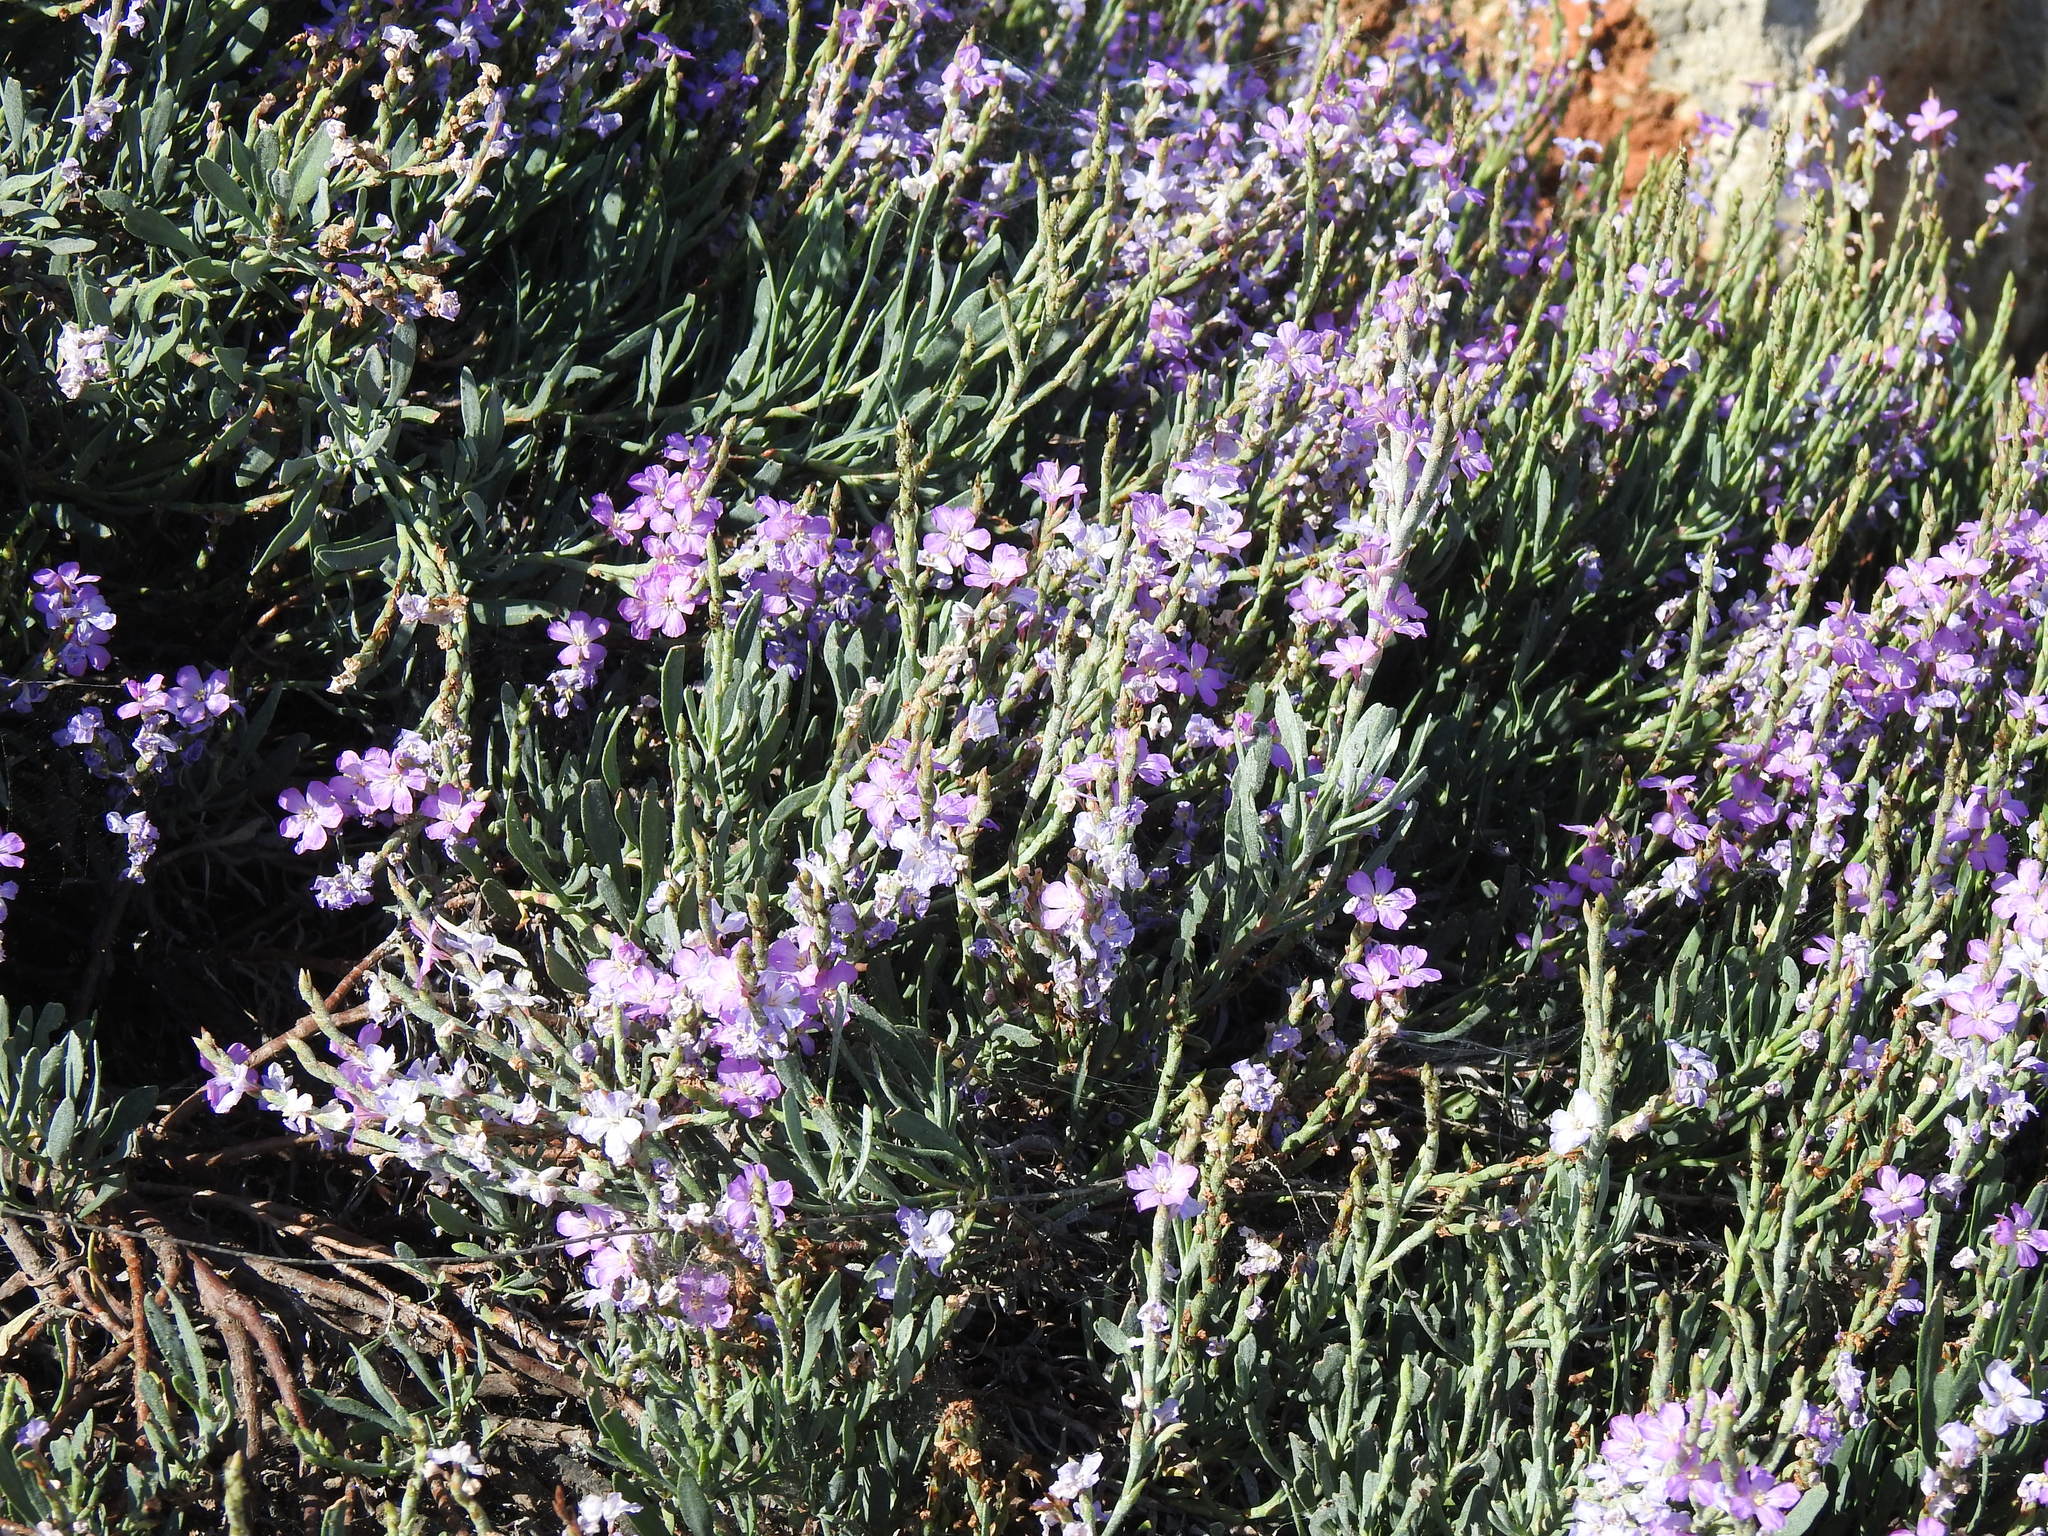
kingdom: Plantae
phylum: Tracheophyta
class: Magnoliopsida
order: Caryophyllales
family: Plumbaginaceae
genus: Limoniastrum
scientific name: Limoniastrum monopetalum
